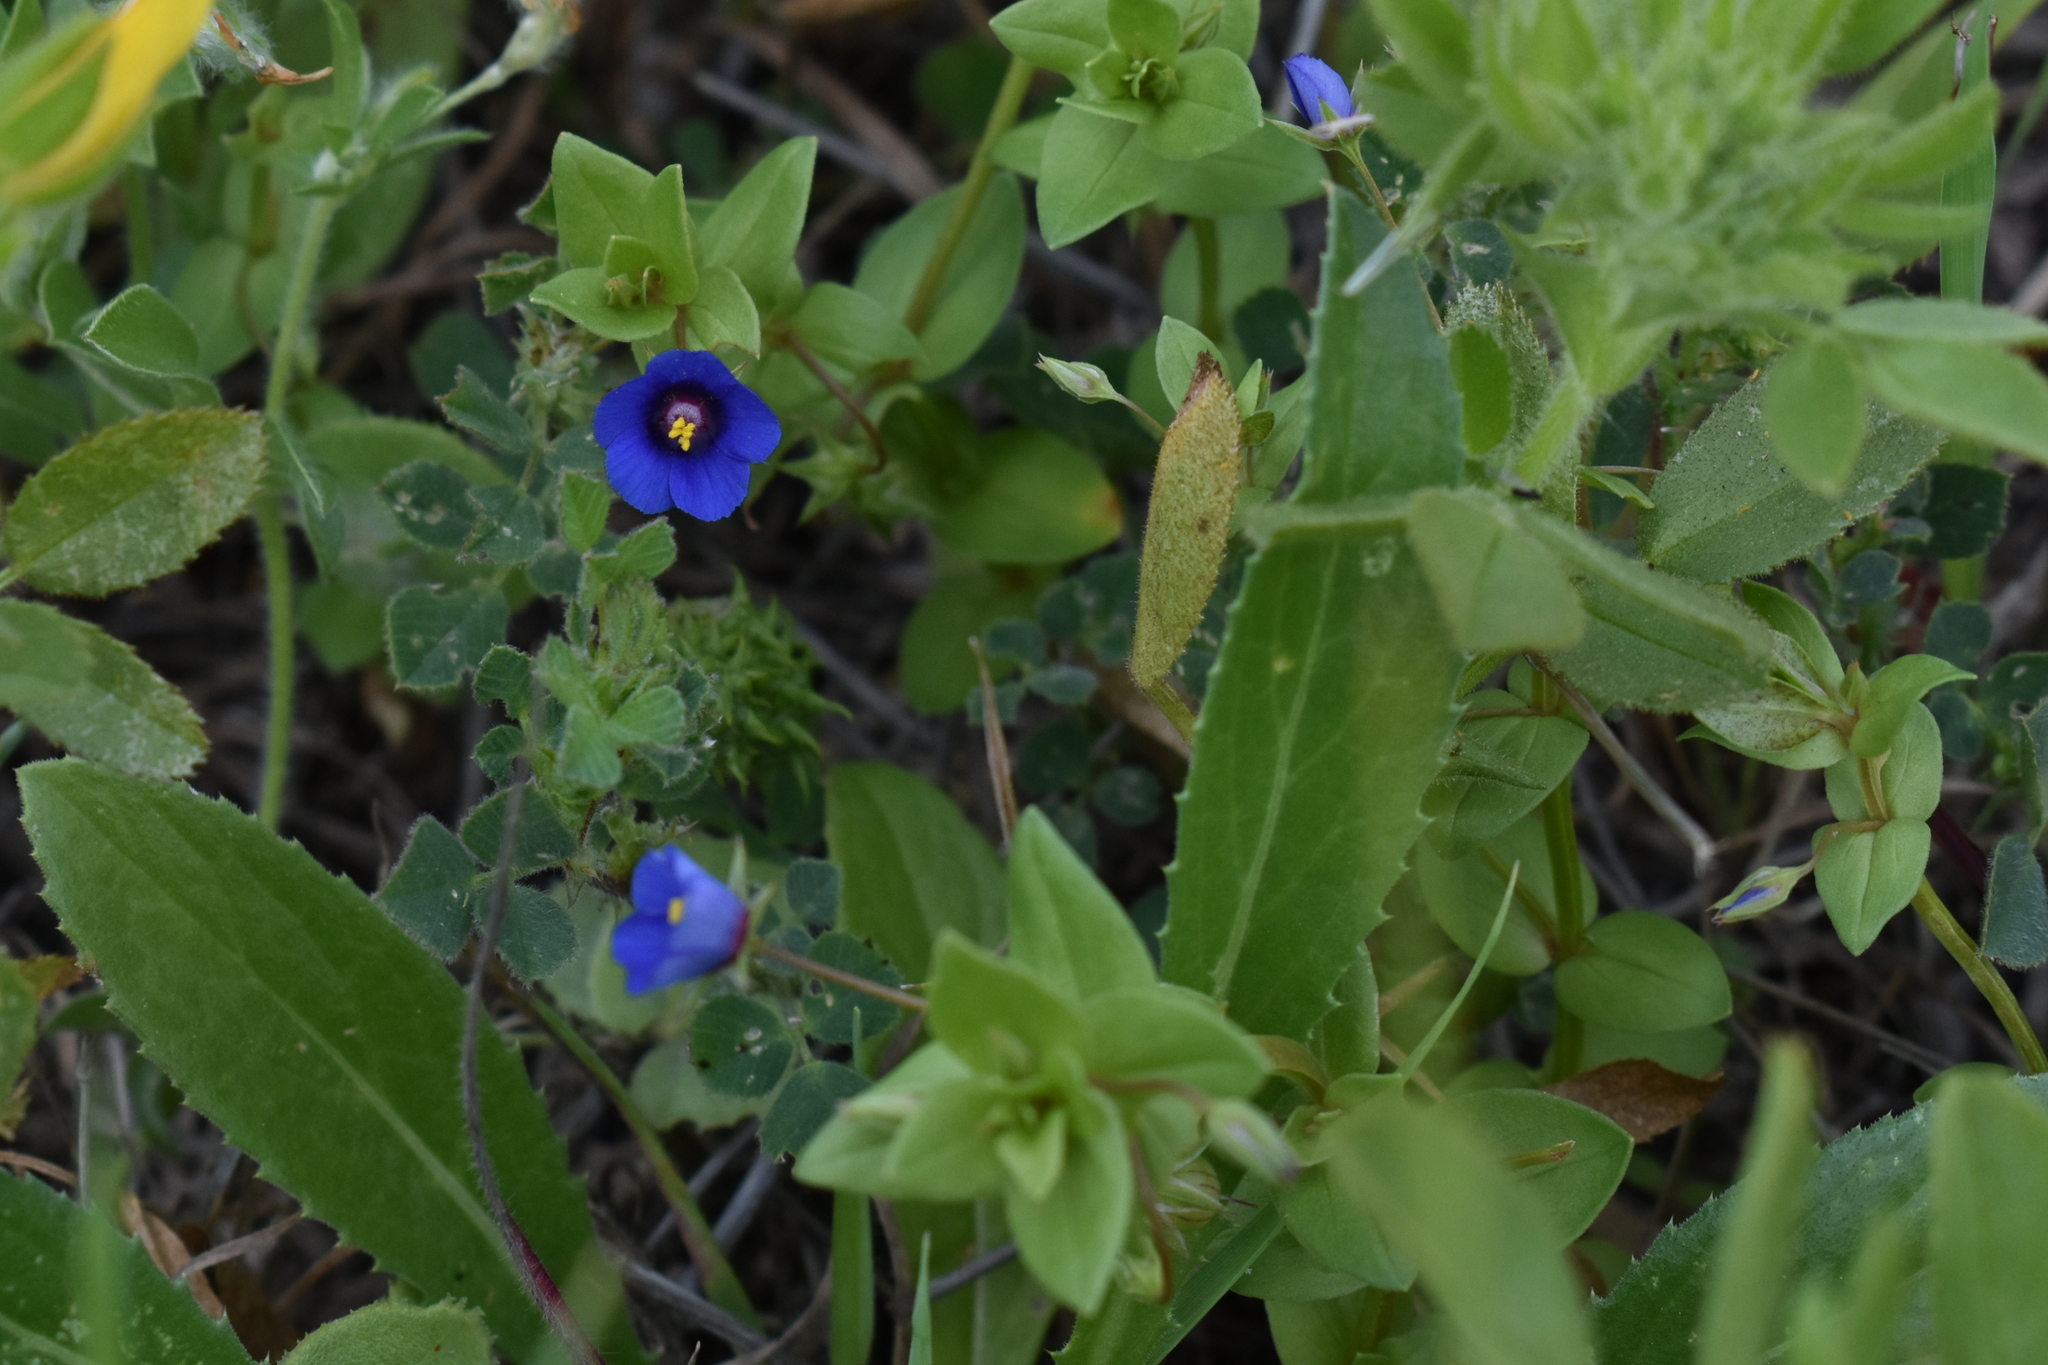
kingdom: Plantae
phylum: Tracheophyta
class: Magnoliopsida
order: Ericales
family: Primulaceae
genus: Lysimachia
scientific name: Lysimachia arvensis
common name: Scarlet pimpernel
